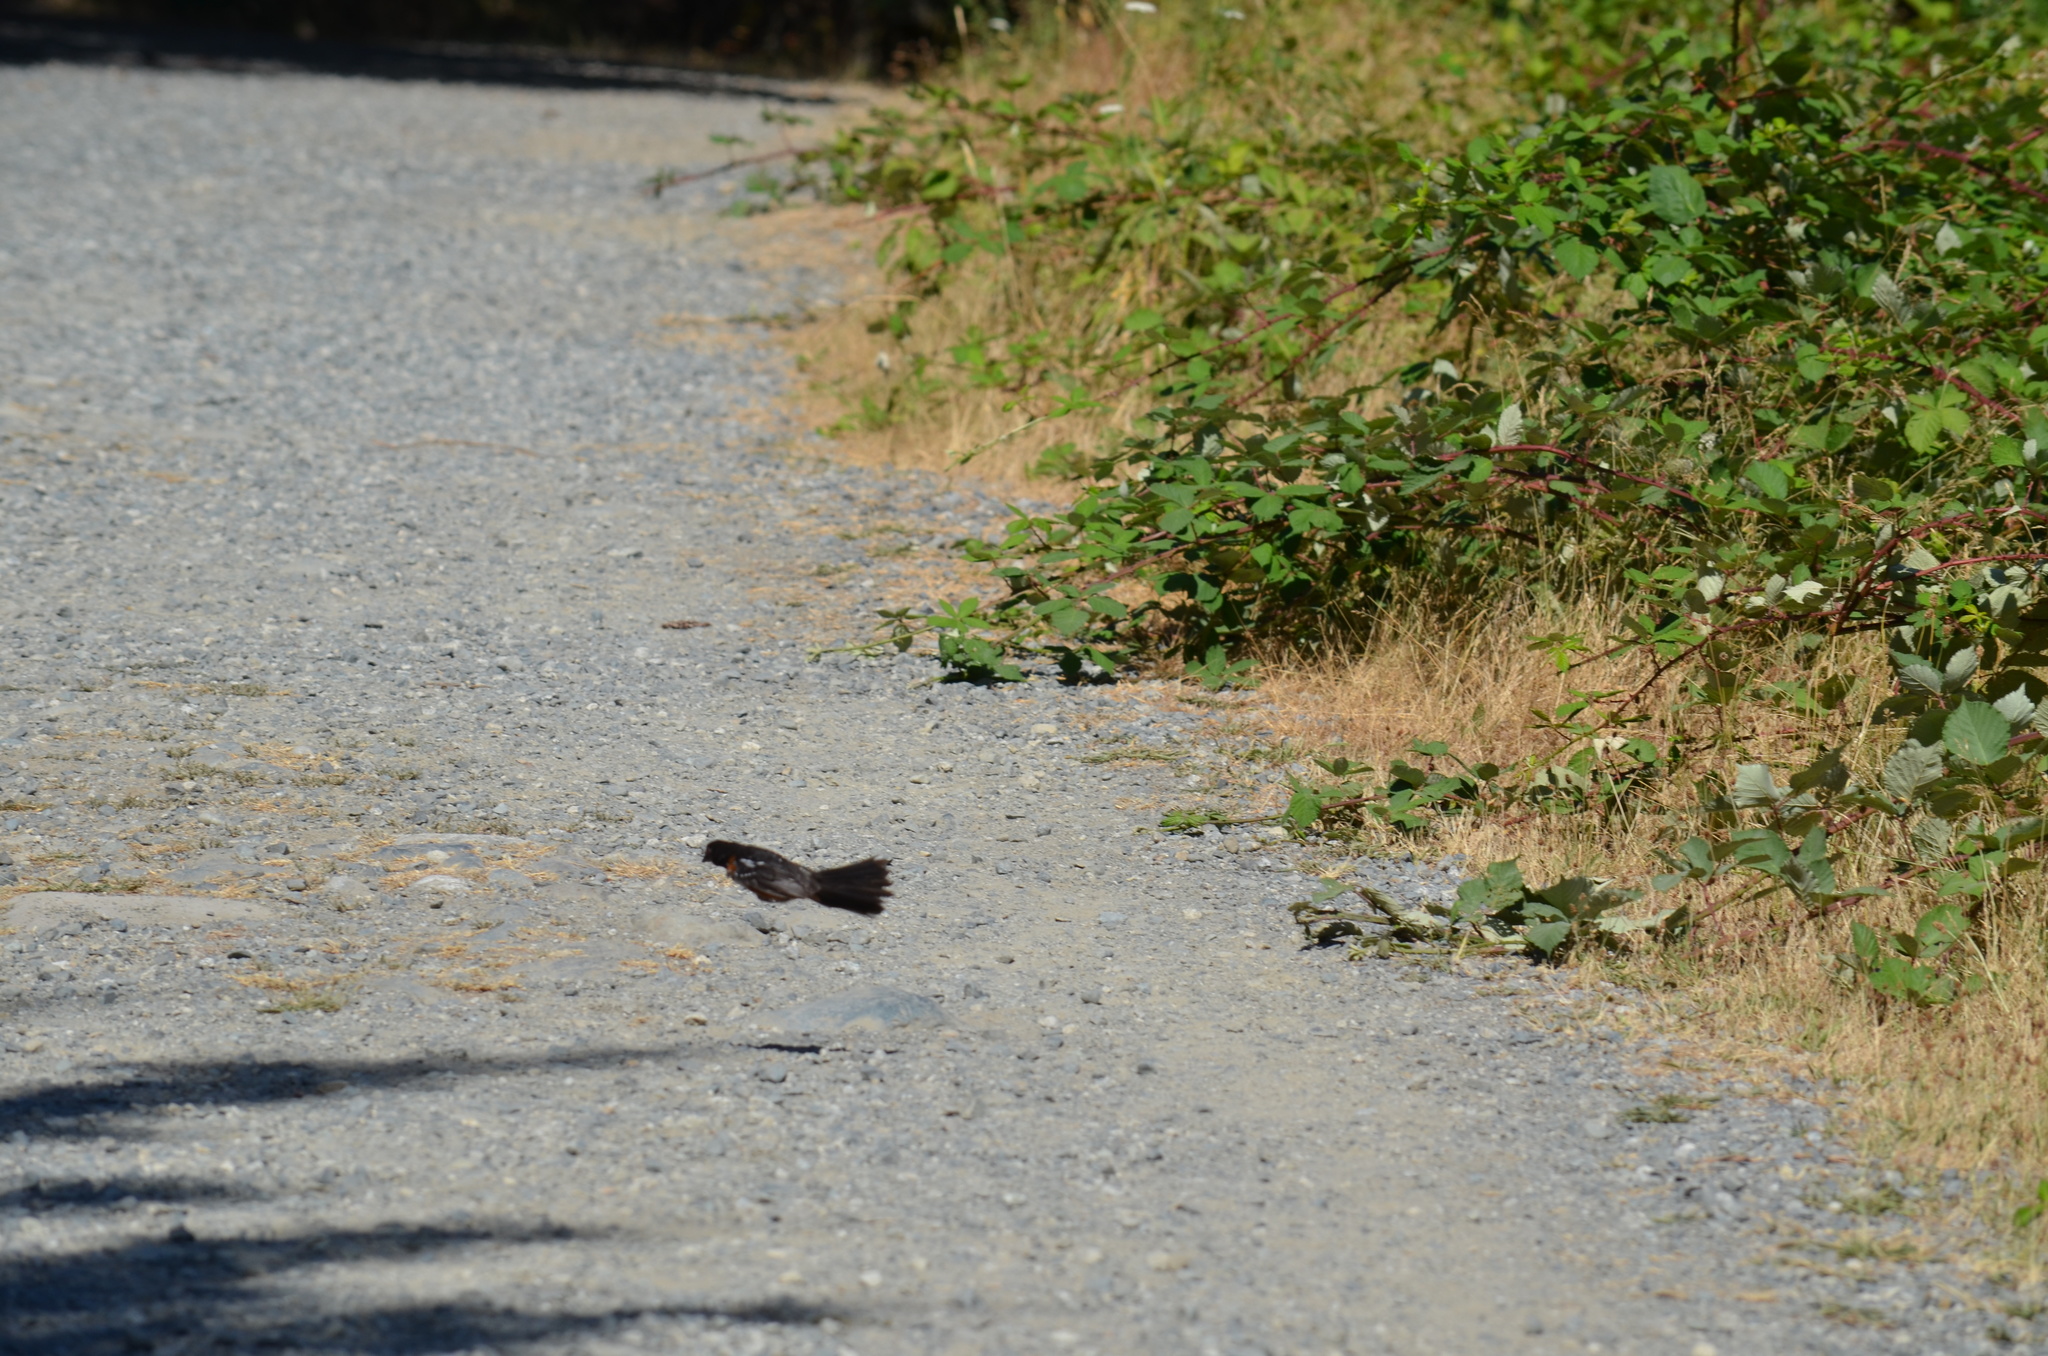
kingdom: Animalia
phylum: Chordata
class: Aves
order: Passeriformes
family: Passerellidae
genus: Pipilo
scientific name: Pipilo maculatus
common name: Spotted towhee
